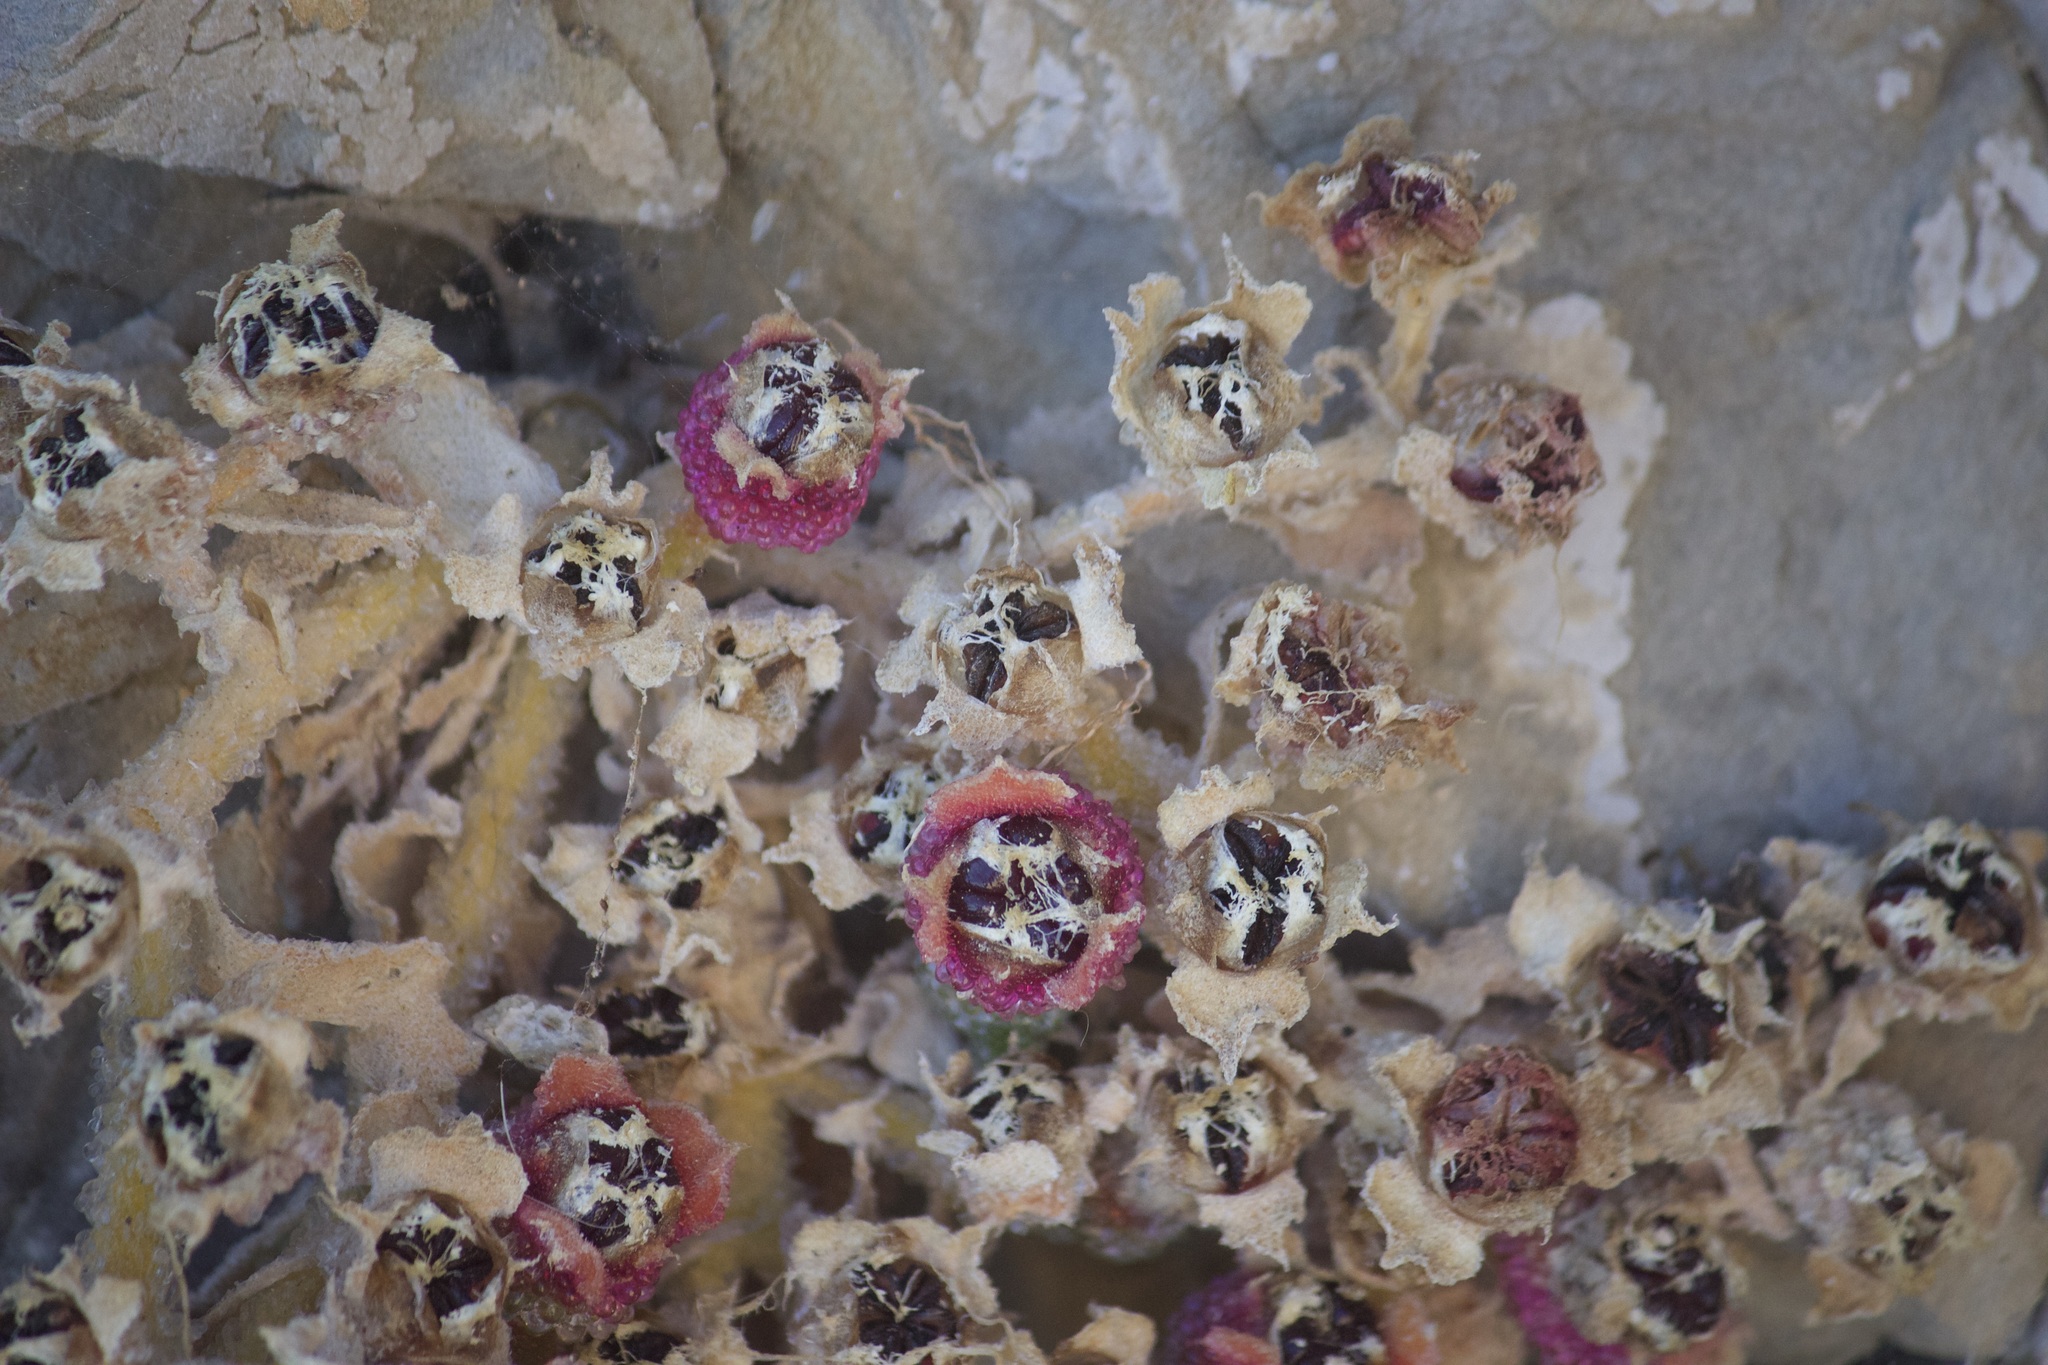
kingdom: Plantae
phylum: Tracheophyta
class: Magnoliopsida
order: Caryophyllales
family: Aizoaceae
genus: Mesembryanthemum
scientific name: Mesembryanthemum crystallinum
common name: Common iceplant
